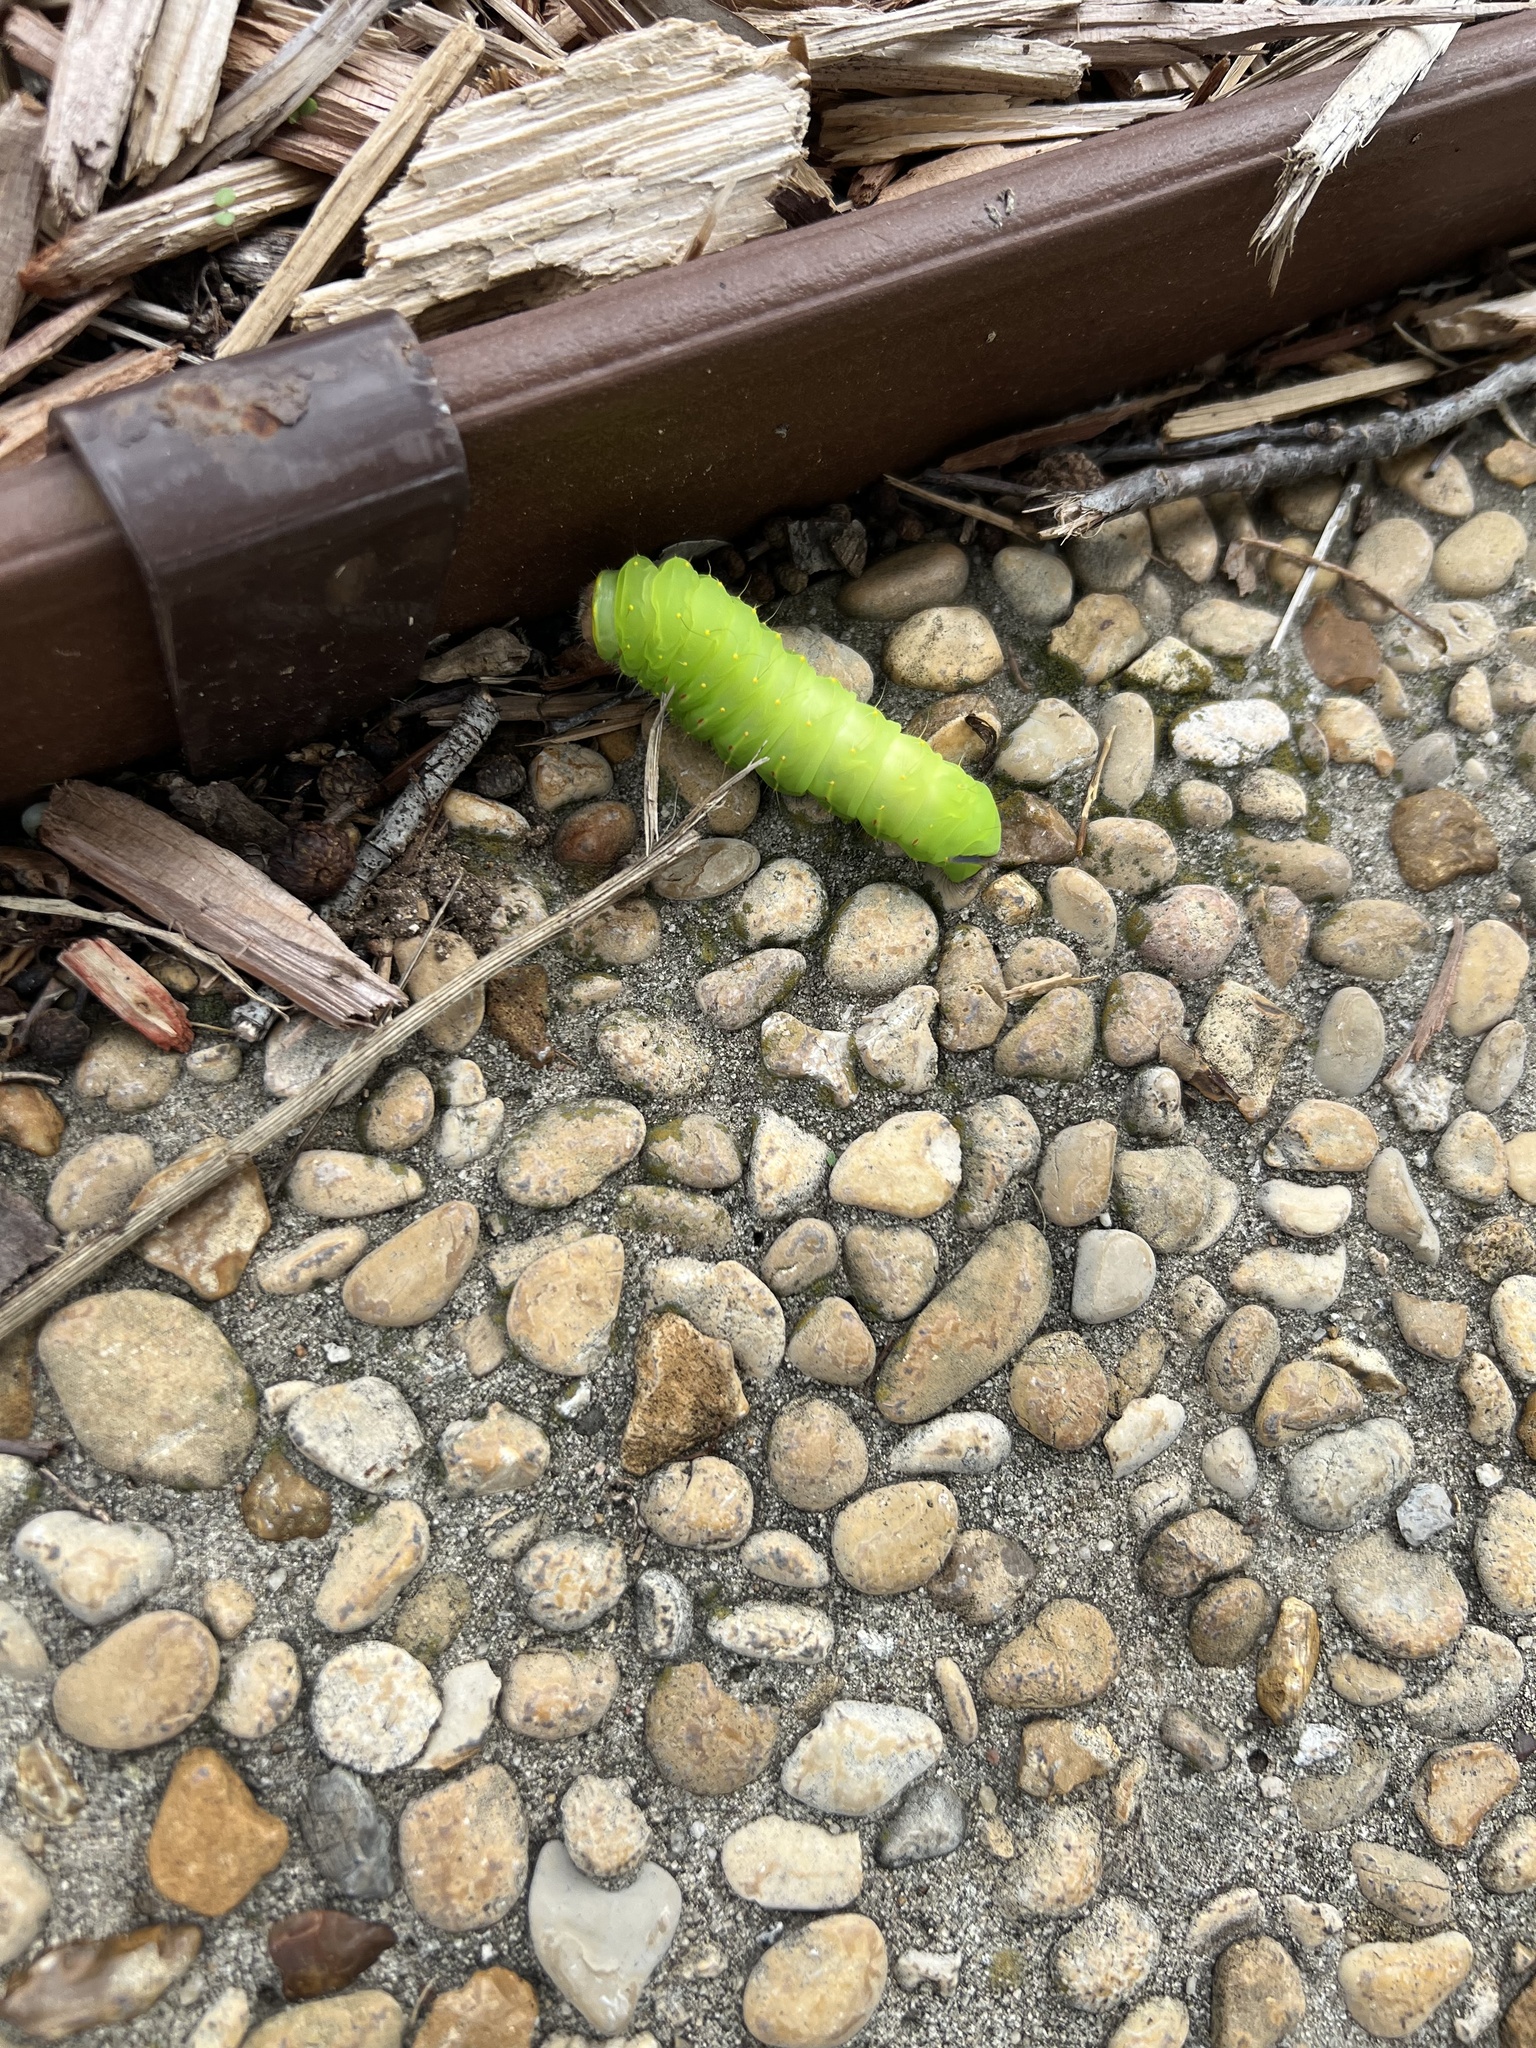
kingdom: Animalia
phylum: Arthropoda
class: Insecta
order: Lepidoptera
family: Saturniidae
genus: Antheraea
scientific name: Antheraea polyphemus
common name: Polyphemus moth
